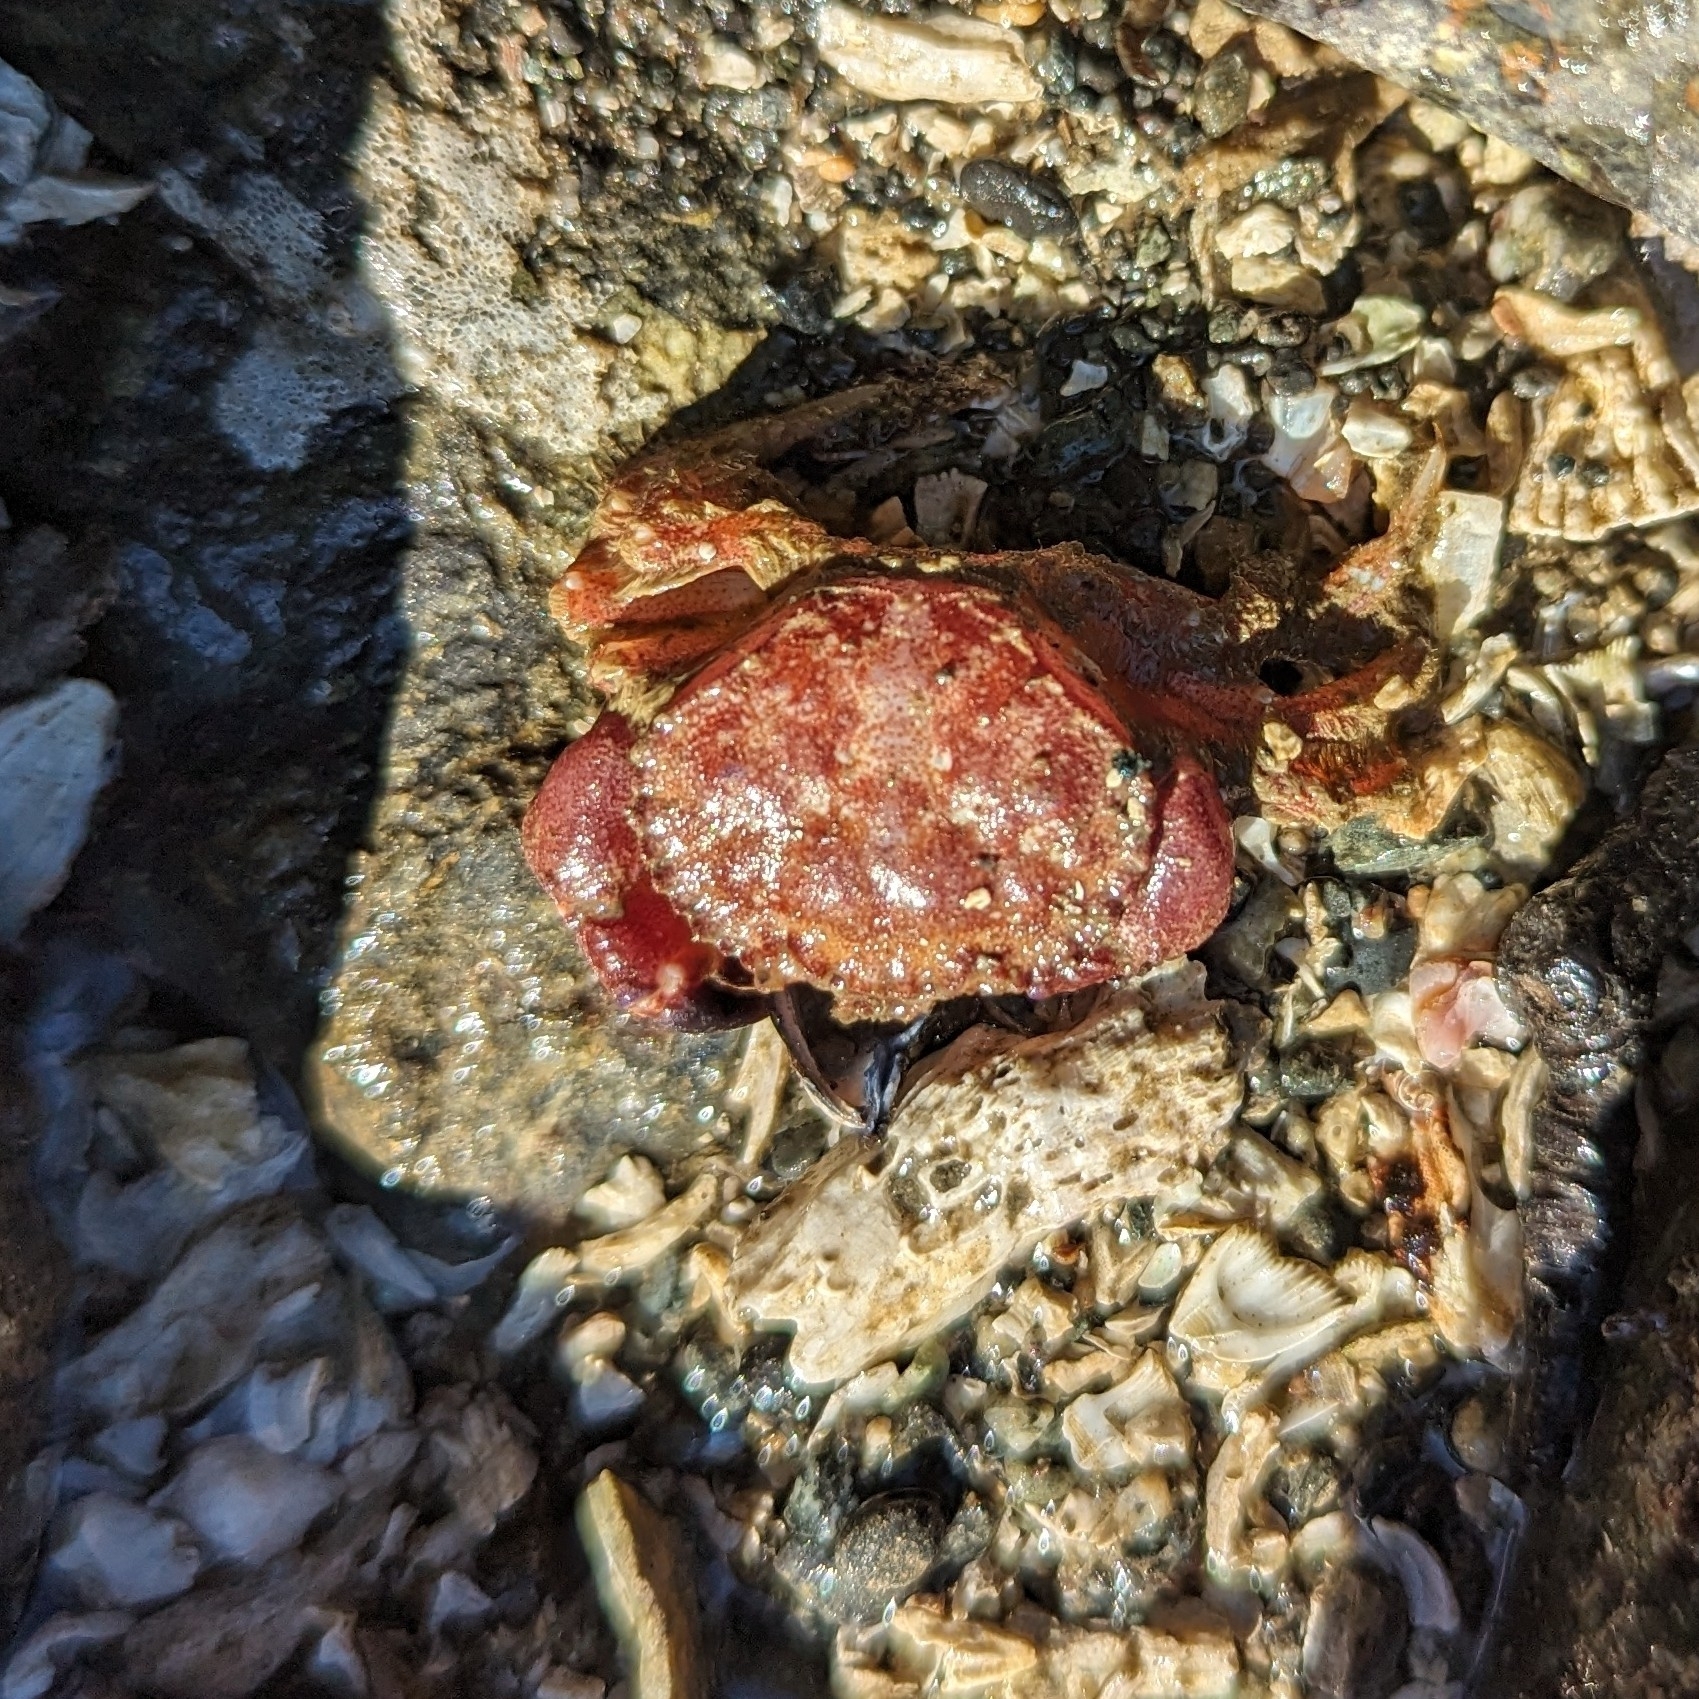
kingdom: Animalia
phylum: Arthropoda
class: Malacostraca
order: Decapoda
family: Cancridae
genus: Glebocarcinus
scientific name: Glebocarcinus oregonensis
